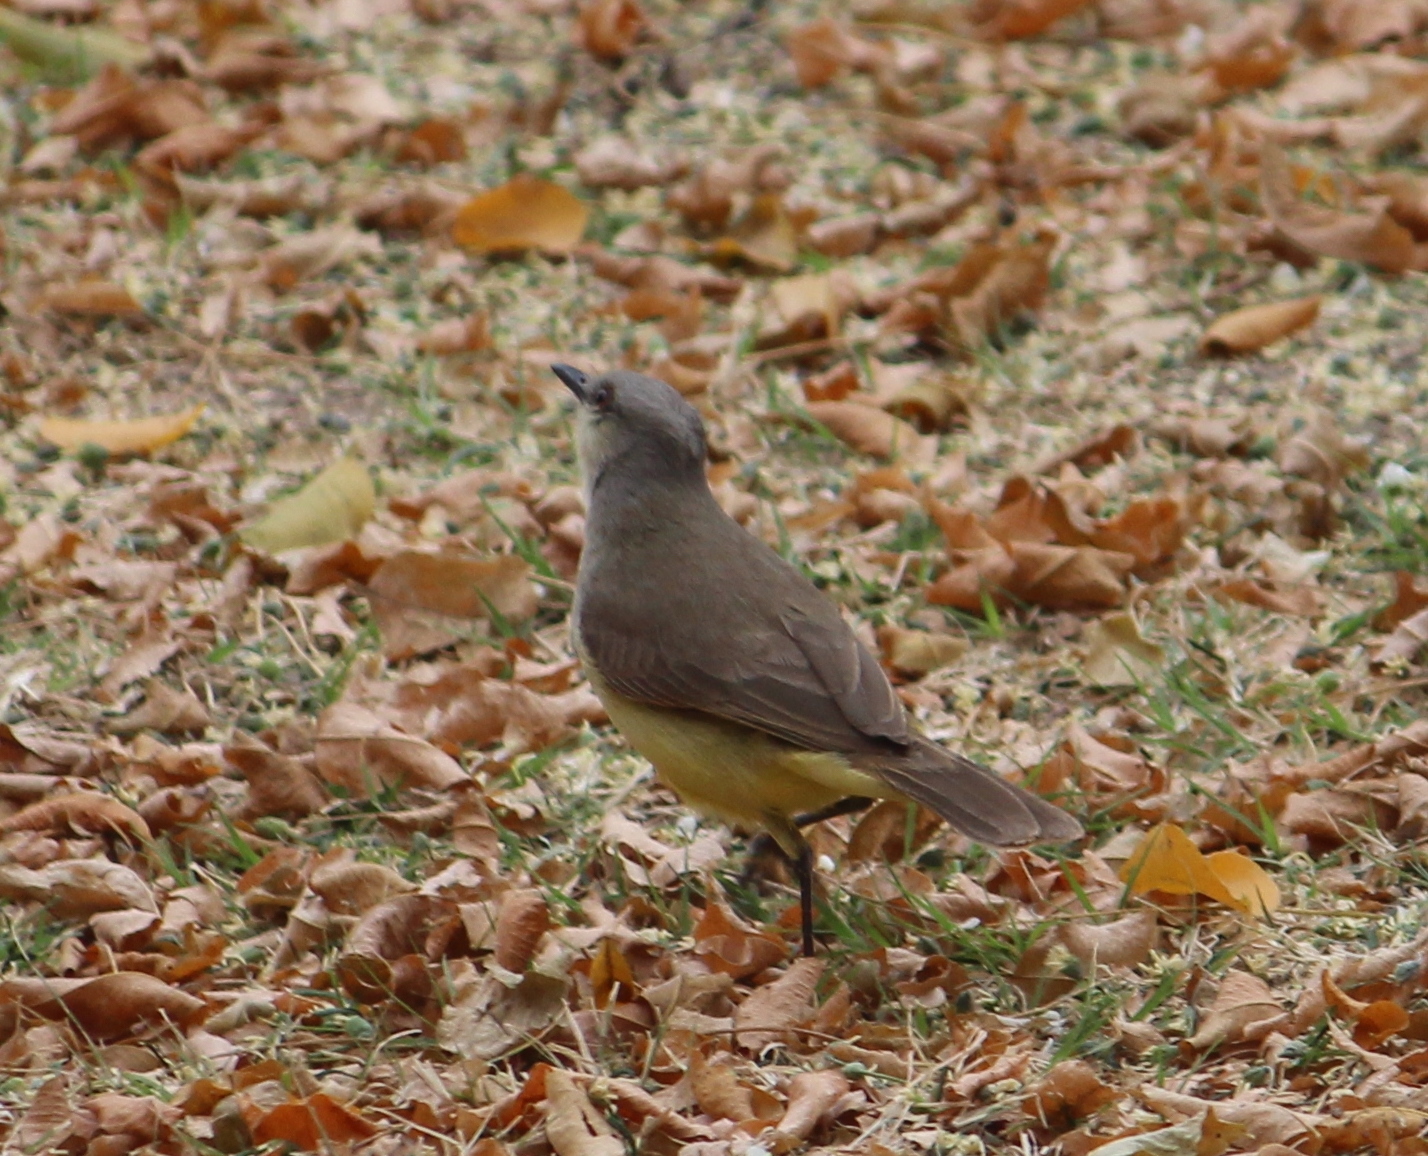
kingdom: Animalia
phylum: Chordata
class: Aves
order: Passeriformes
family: Tyrannidae
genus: Machetornis
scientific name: Machetornis rixosa
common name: Cattle tyrant
